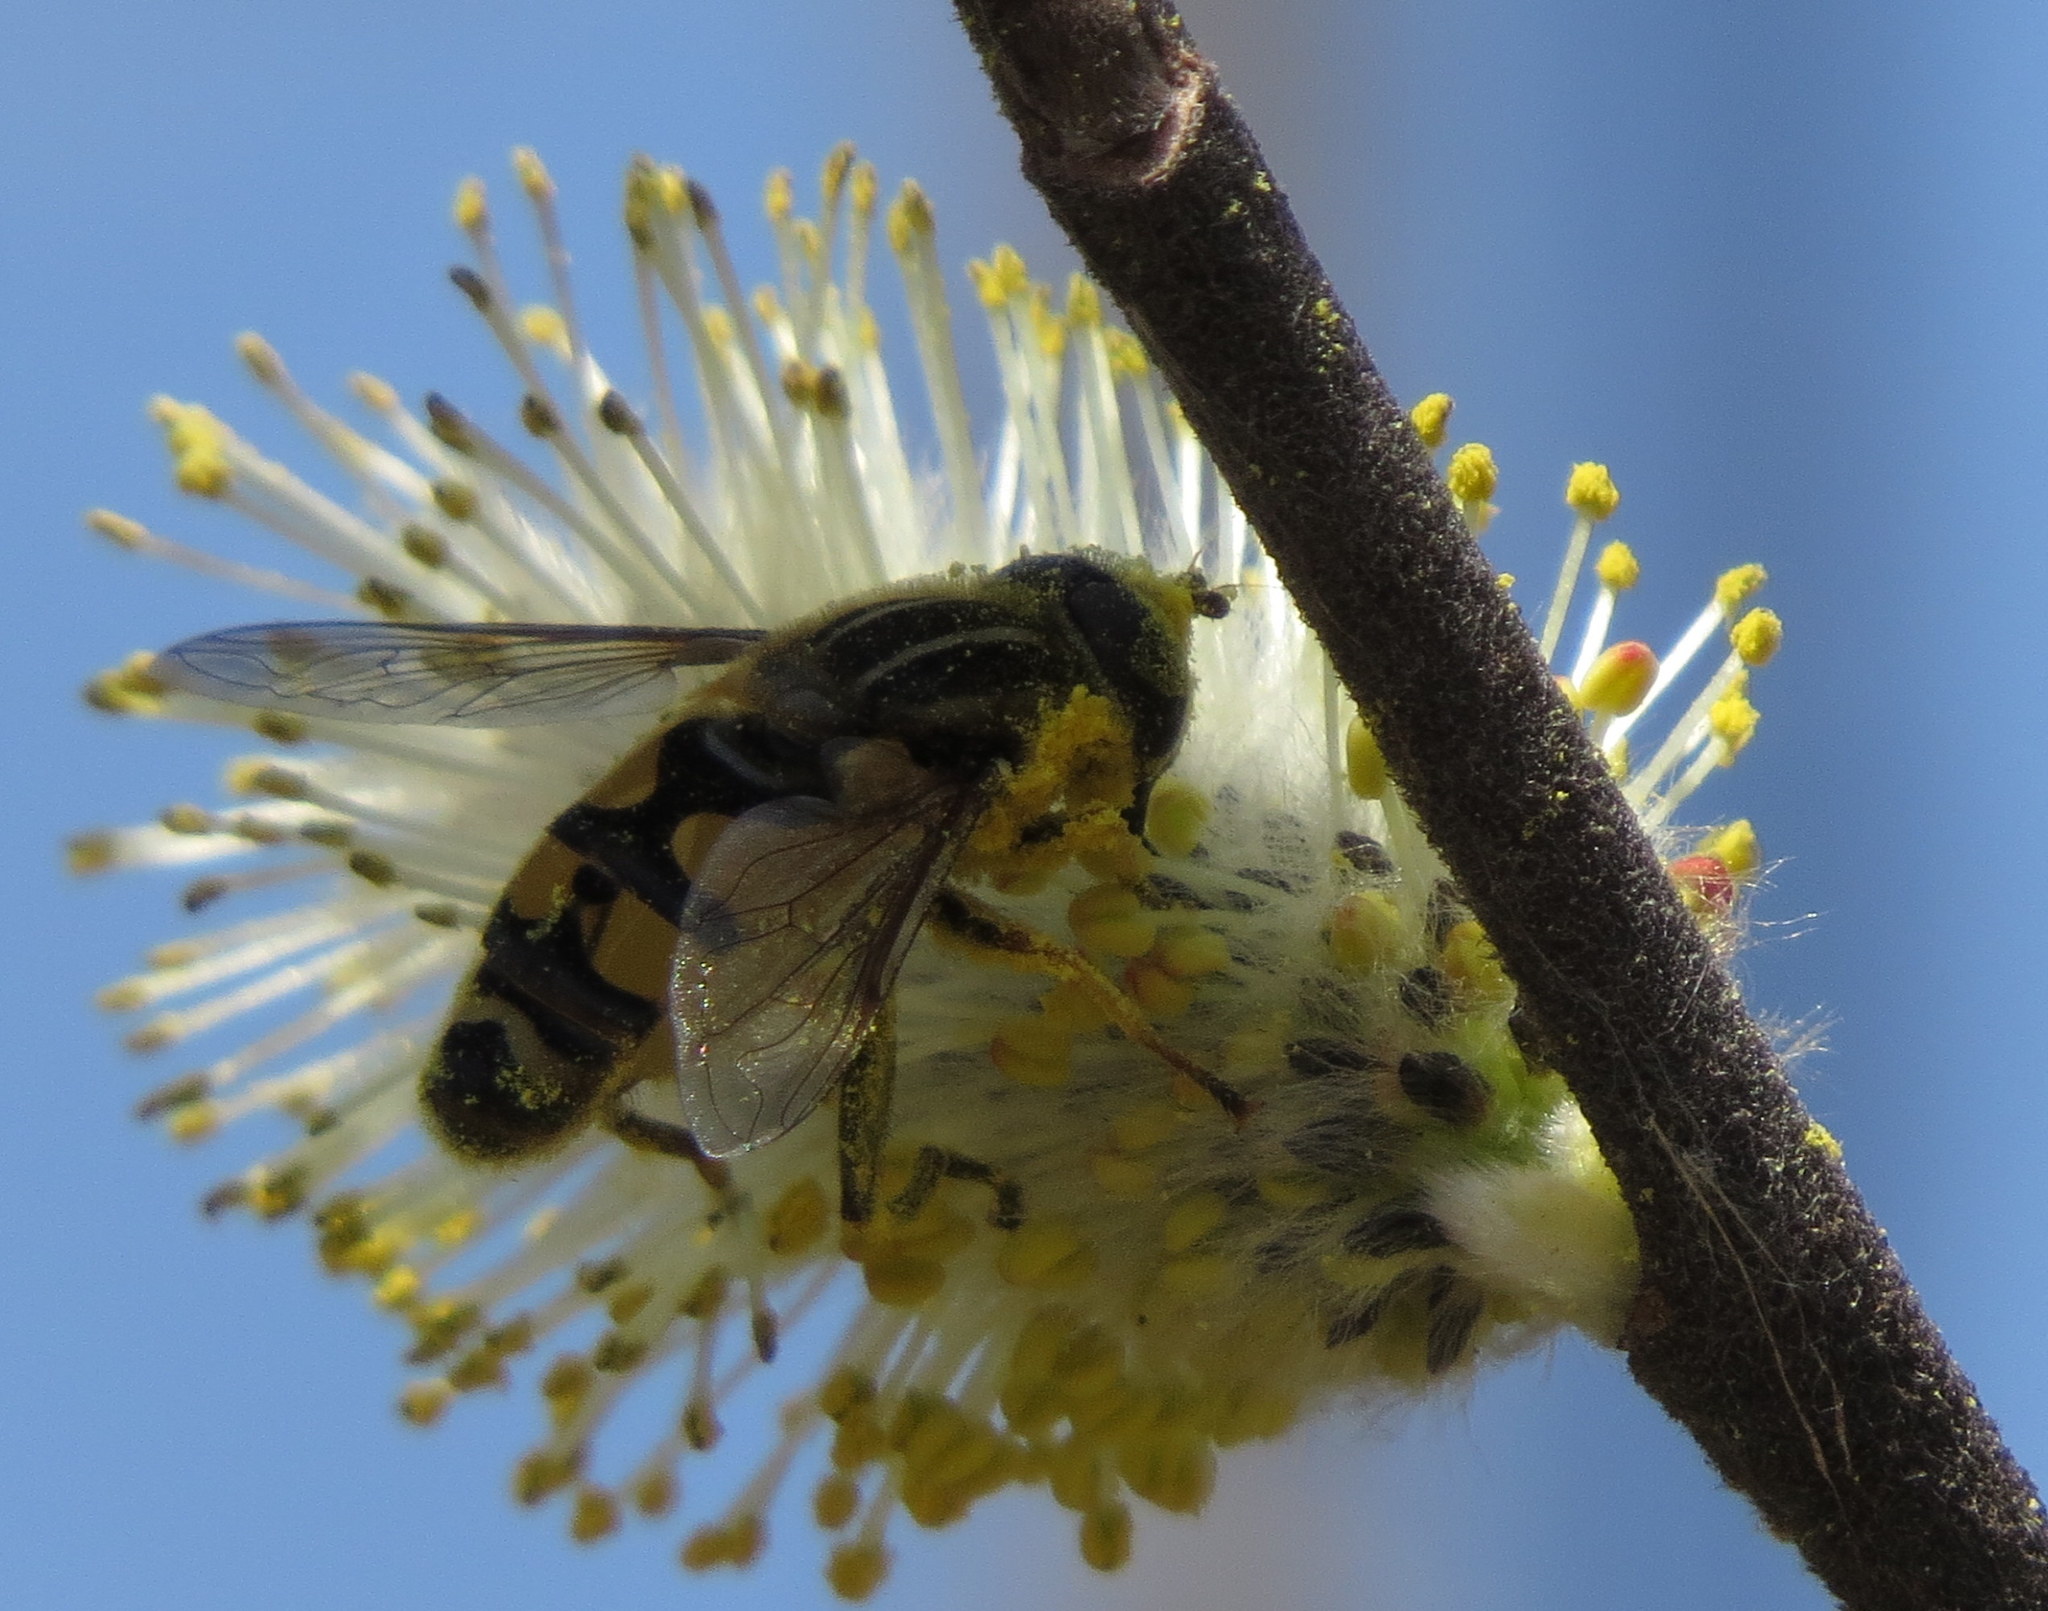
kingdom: Animalia
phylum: Arthropoda
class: Insecta
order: Diptera
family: Syrphidae
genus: Helophilus
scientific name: Helophilus fasciatus
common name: Narrow-headed marsh fly
